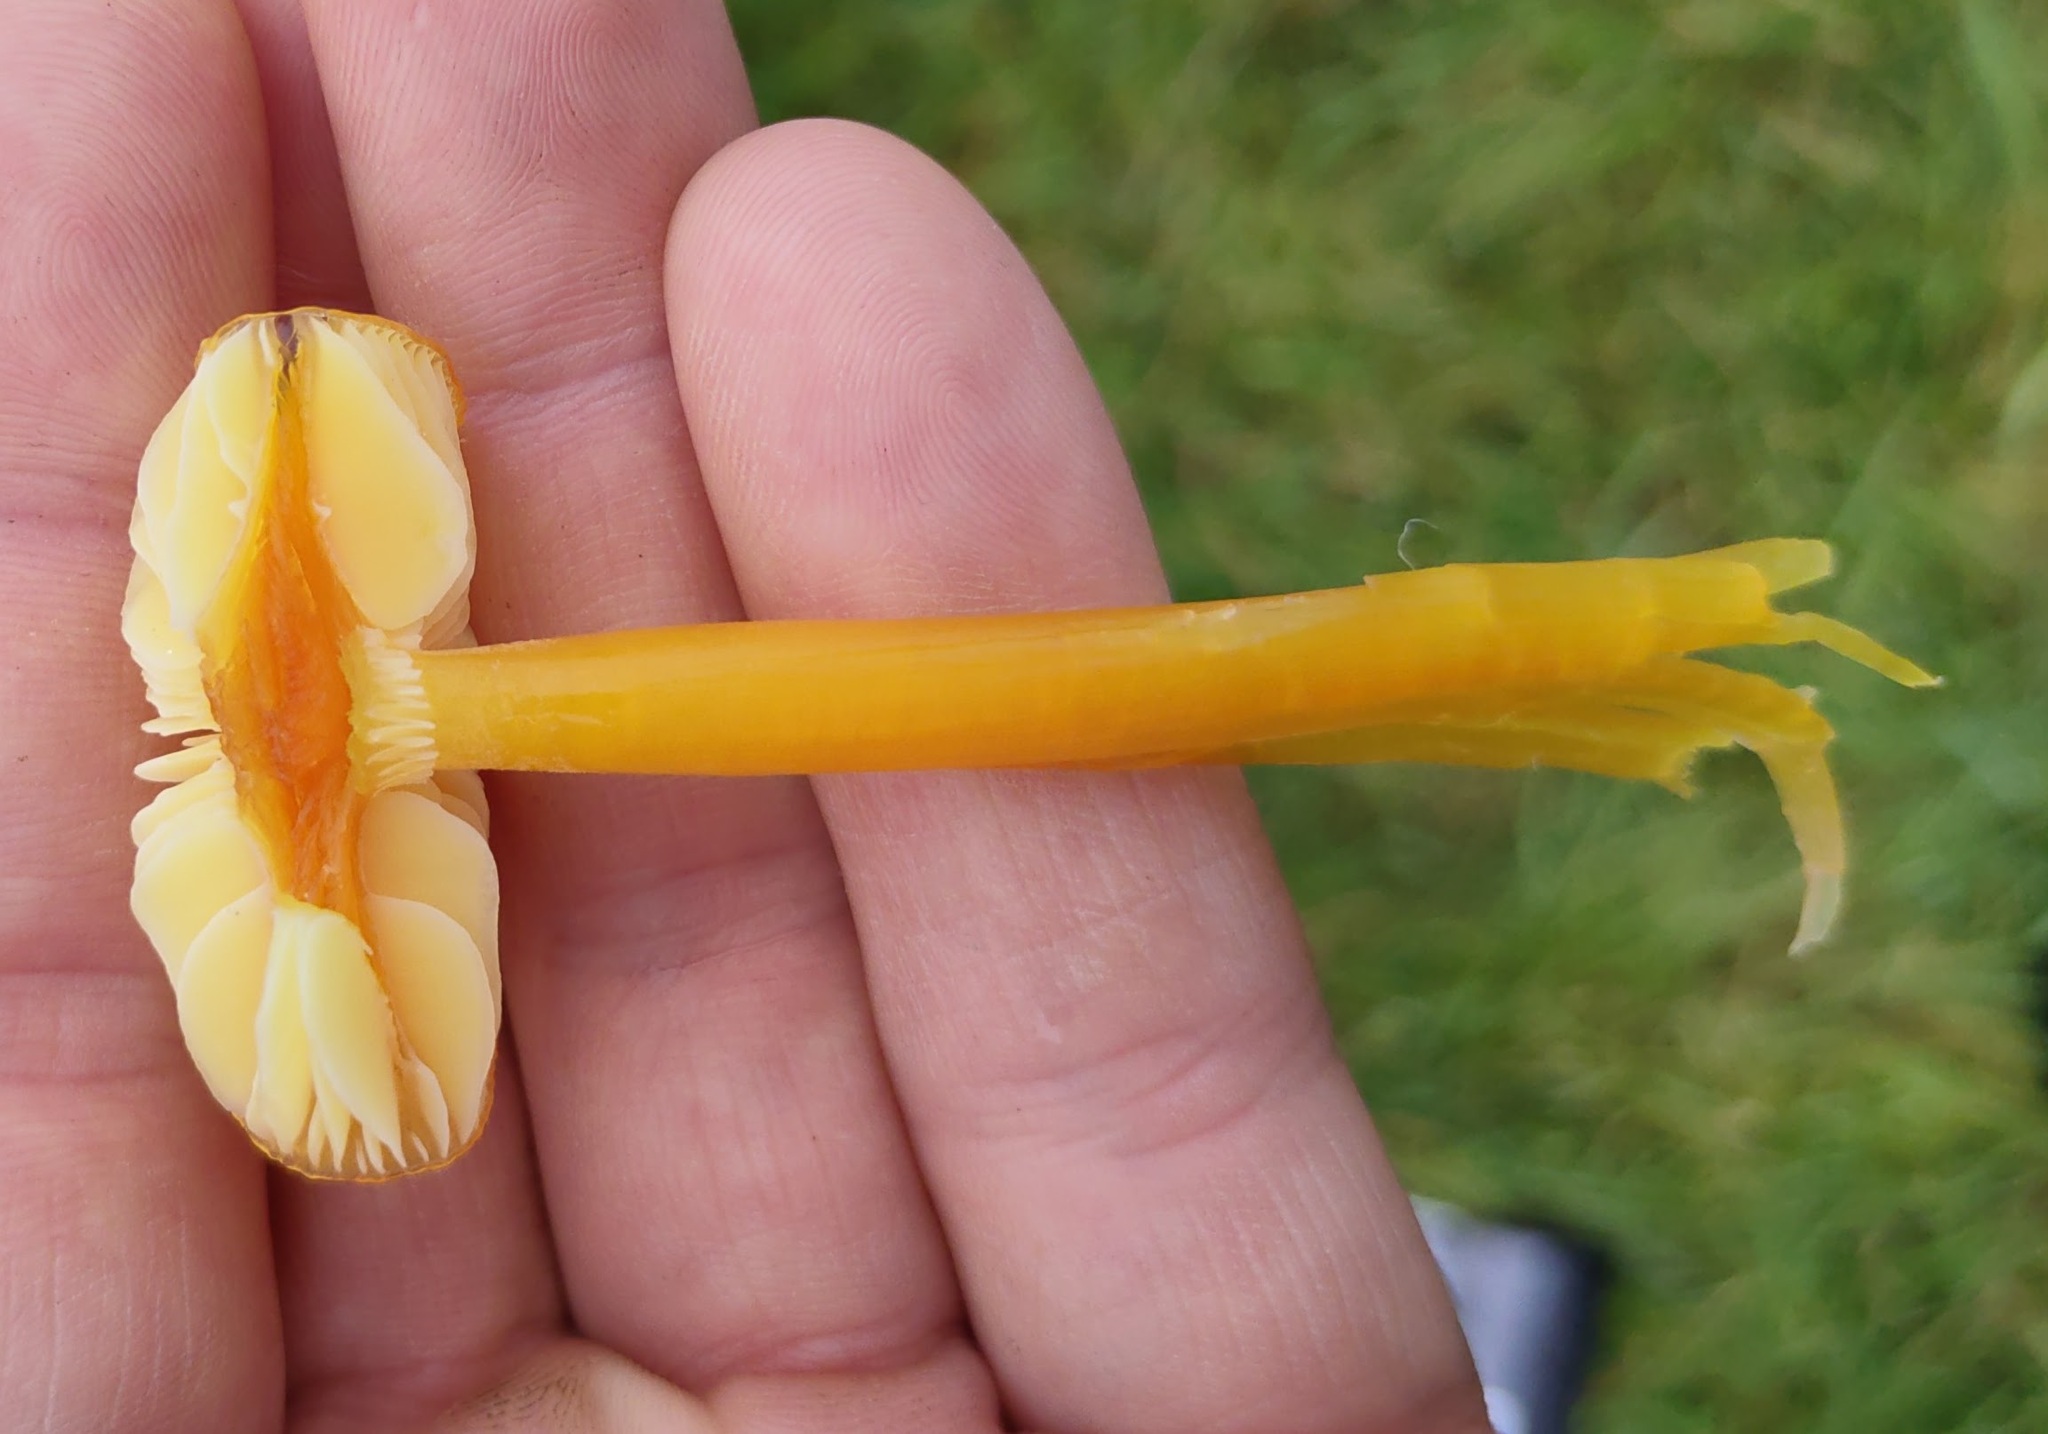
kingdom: Fungi
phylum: Basidiomycota
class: Agaricomycetes
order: Agaricales
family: Hygrophoraceae
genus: Hygrocybe
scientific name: Hygrocybe chlorophana
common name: Golden waxcap
